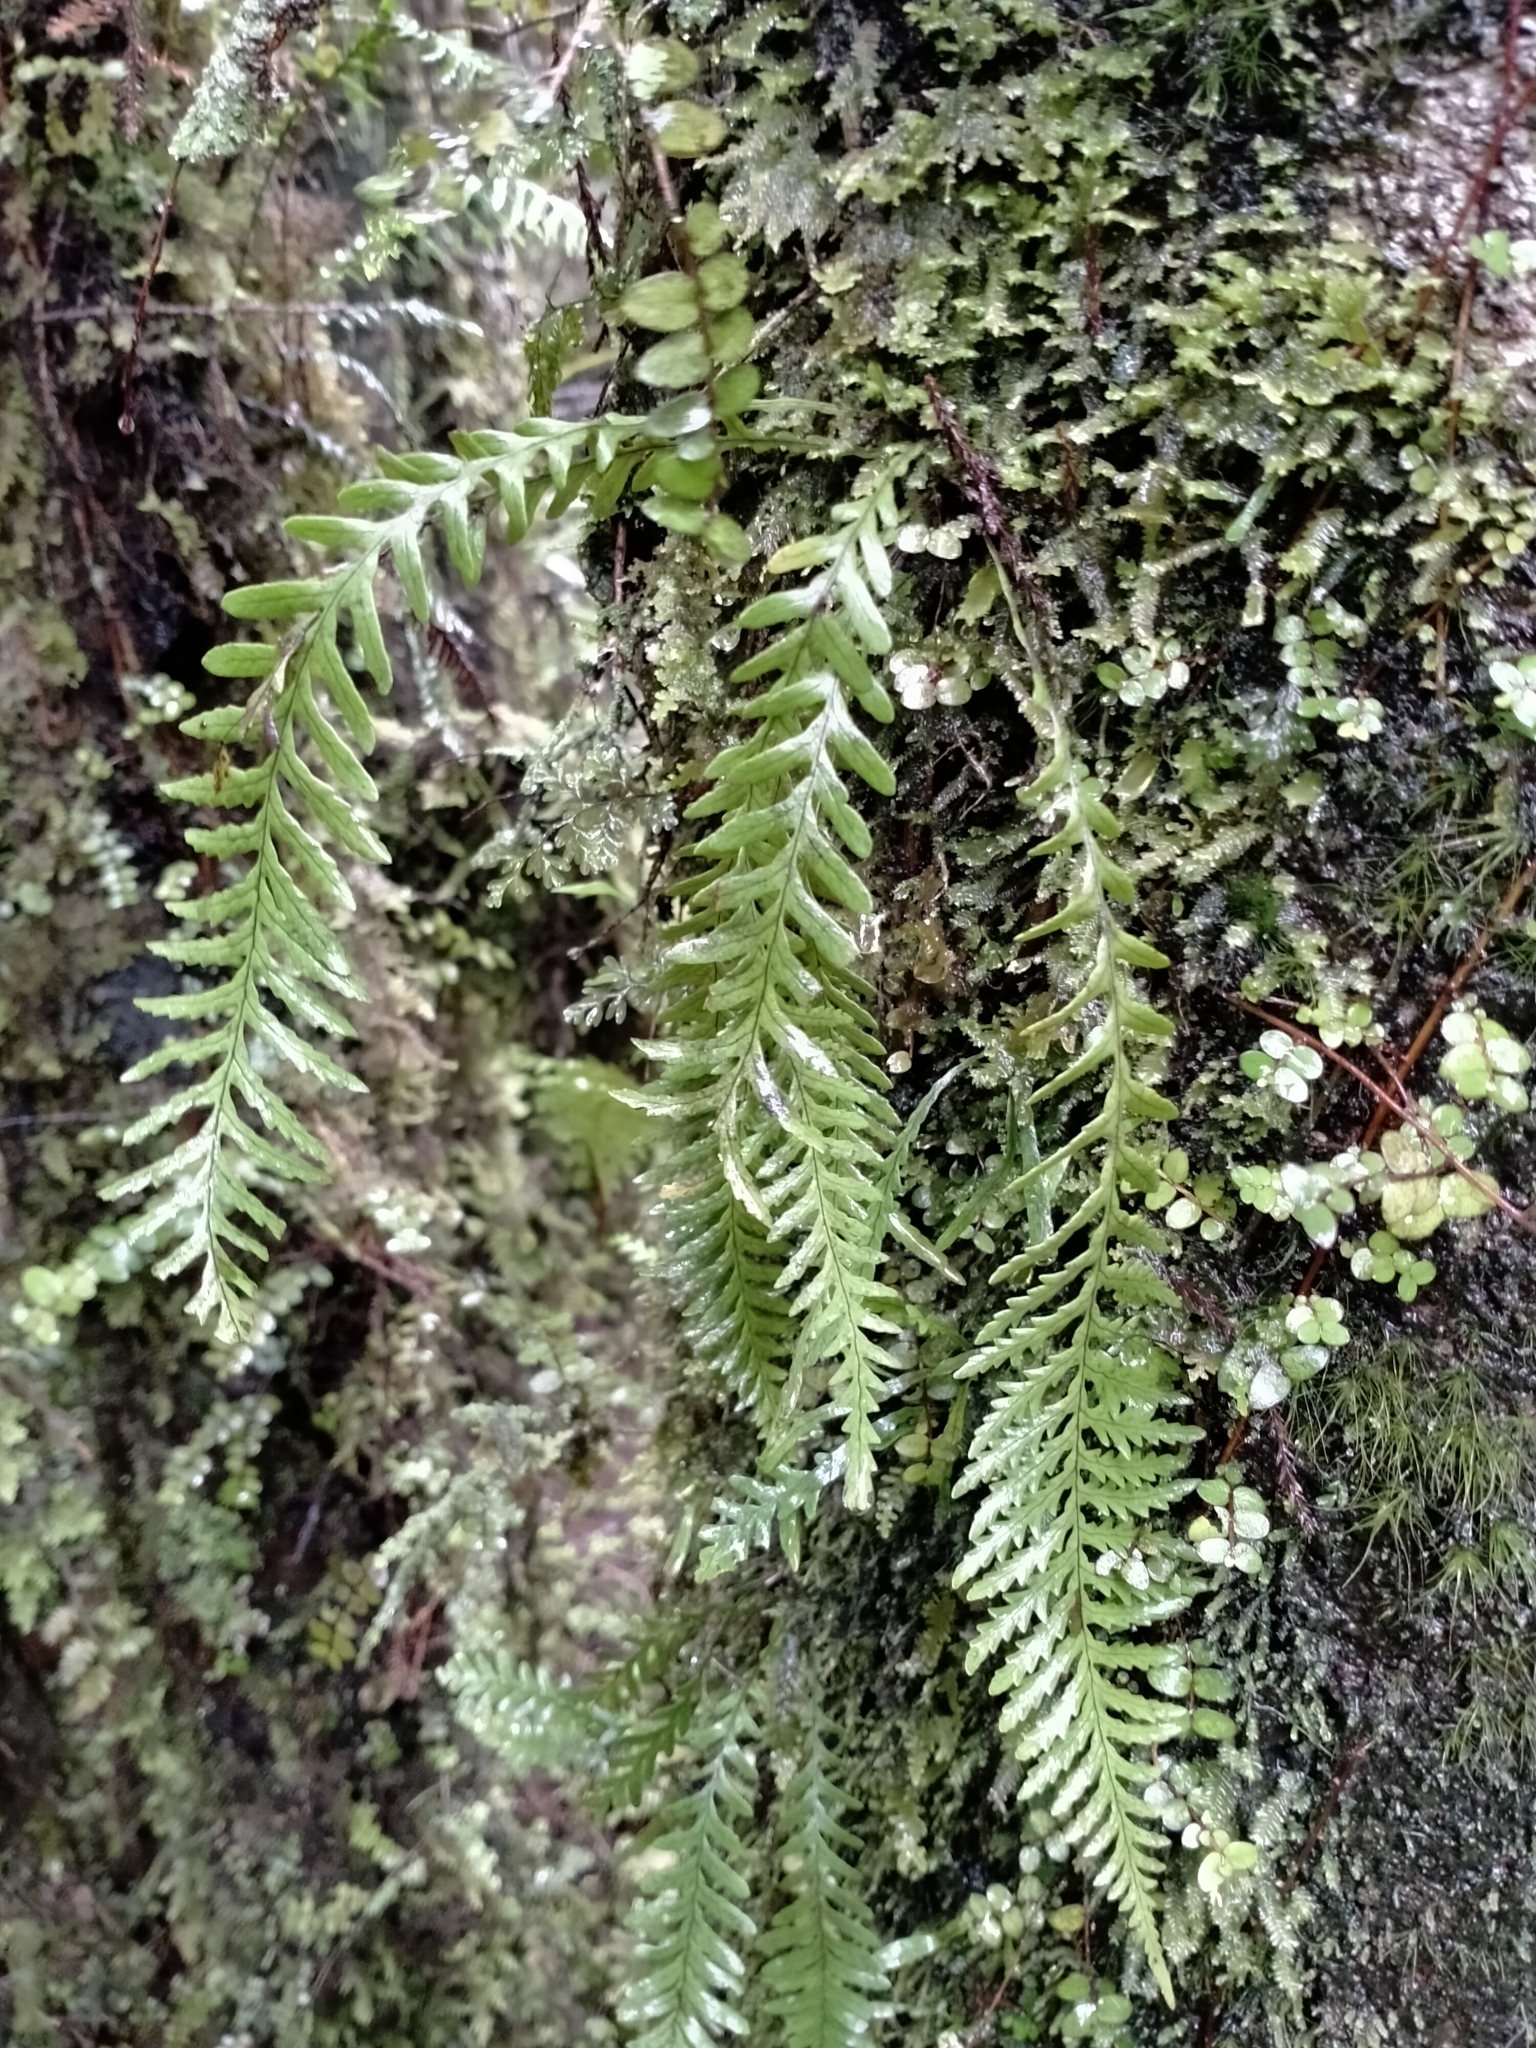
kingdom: Plantae
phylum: Tracheophyta
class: Polypodiopsida
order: Polypodiales
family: Polypodiaceae
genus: Notogrammitis
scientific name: Notogrammitis heterophylla
